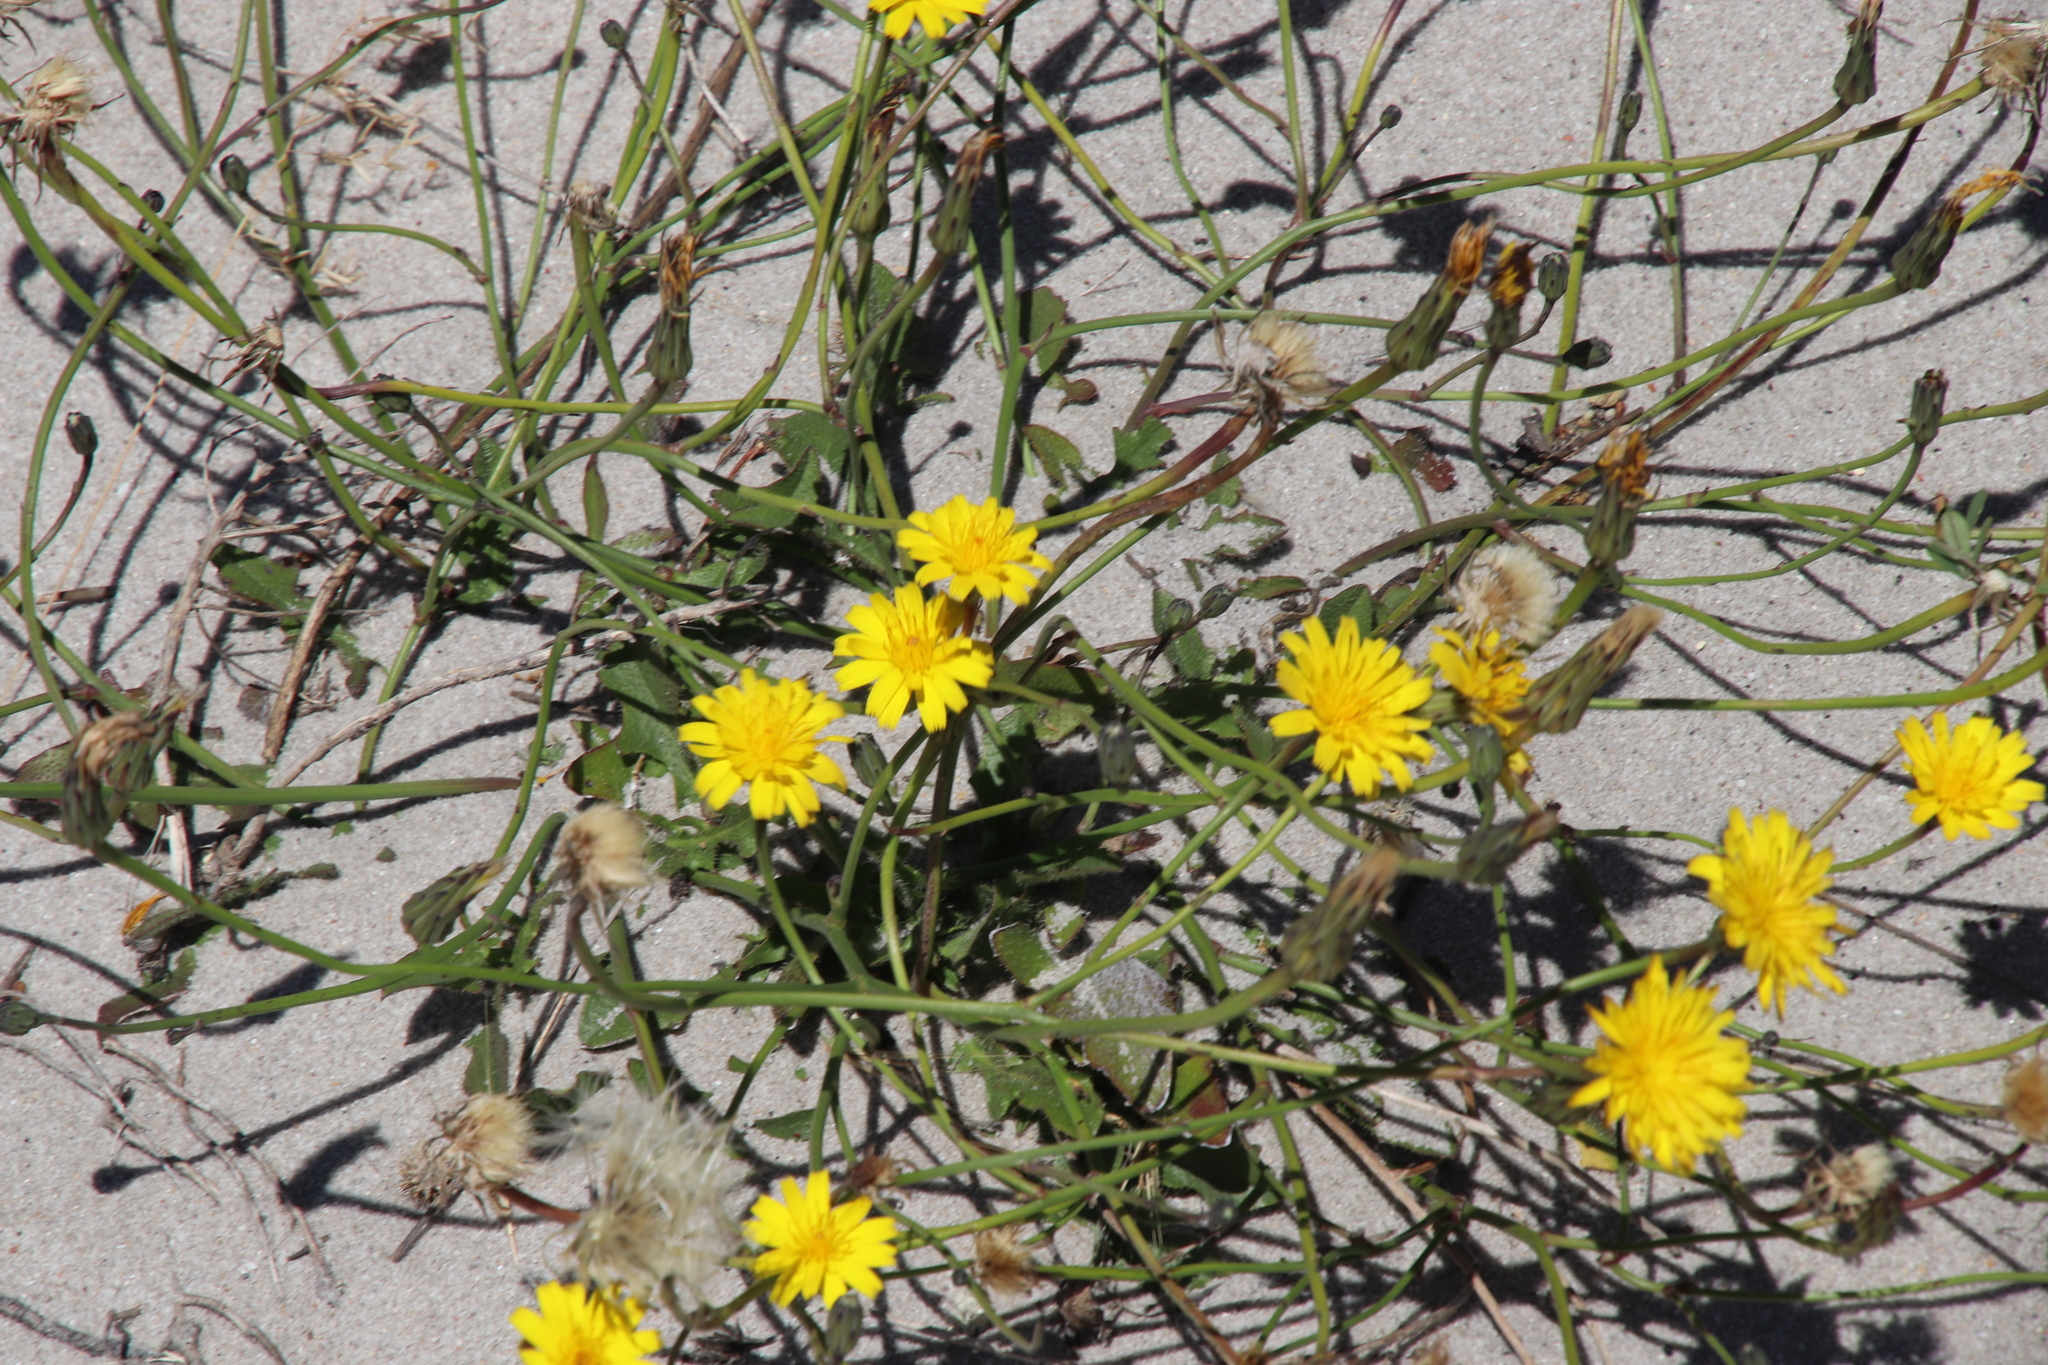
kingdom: Plantae
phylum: Tracheophyta
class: Magnoliopsida
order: Asterales
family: Asteraceae
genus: Hypochaeris
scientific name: Hypochaeris radicata
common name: Flatweed
